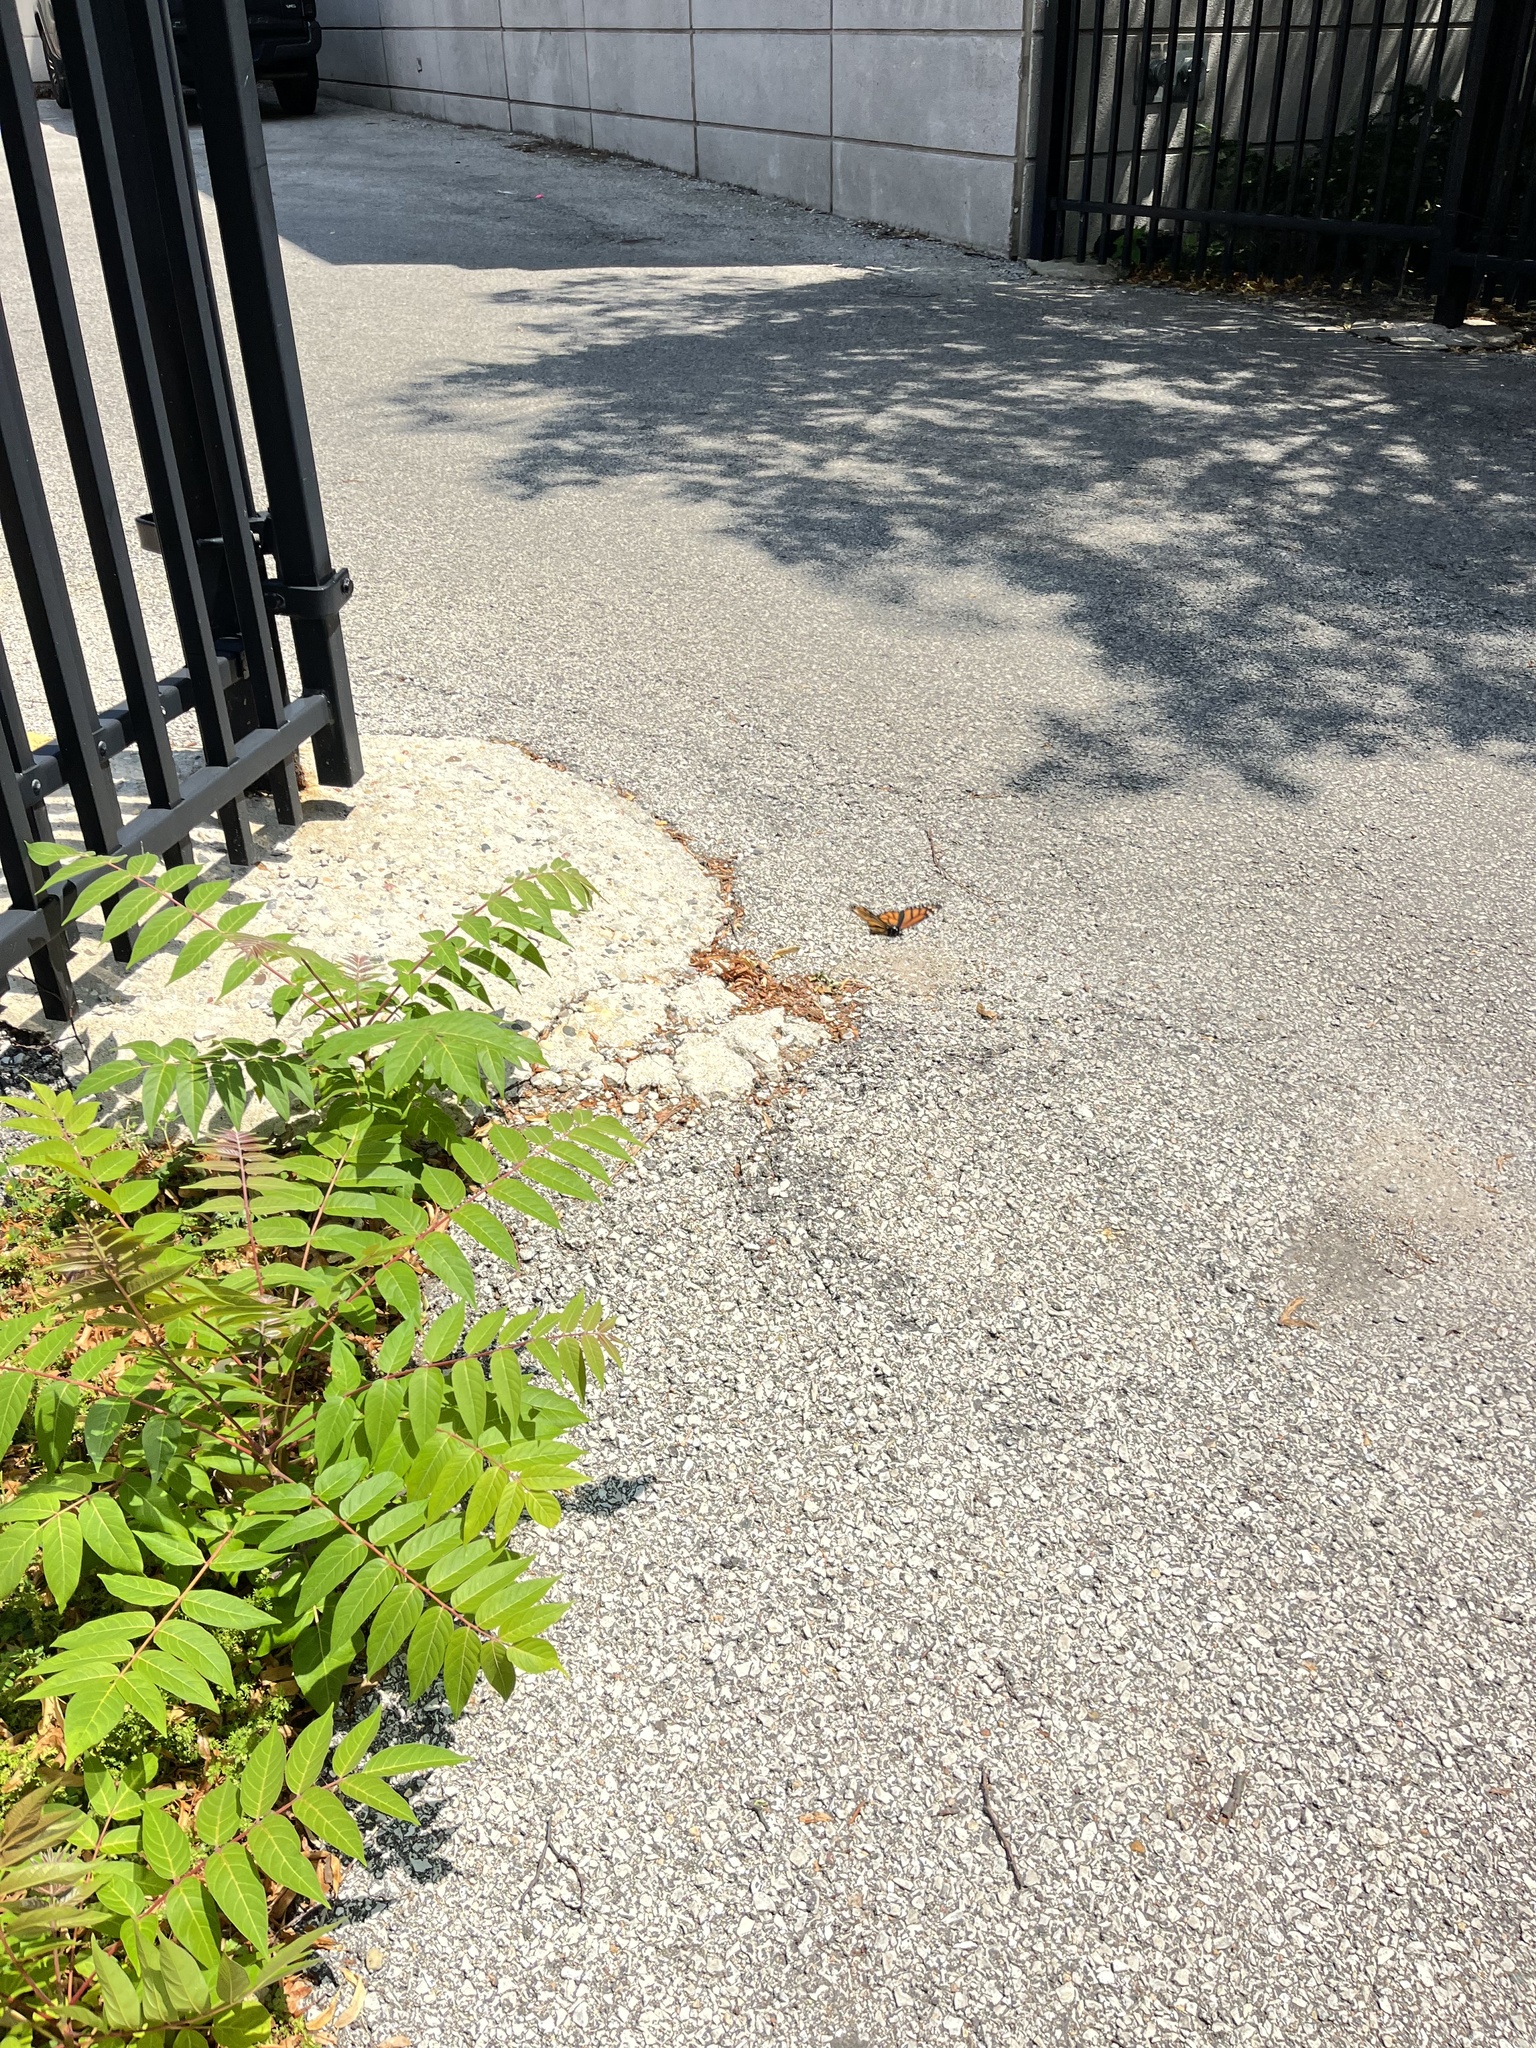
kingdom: Animalia
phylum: Arthropoda
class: Insecta
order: Lepidoptera
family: Nymphalidae
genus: Danaus
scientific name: Danaus plexippus
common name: Monarch
